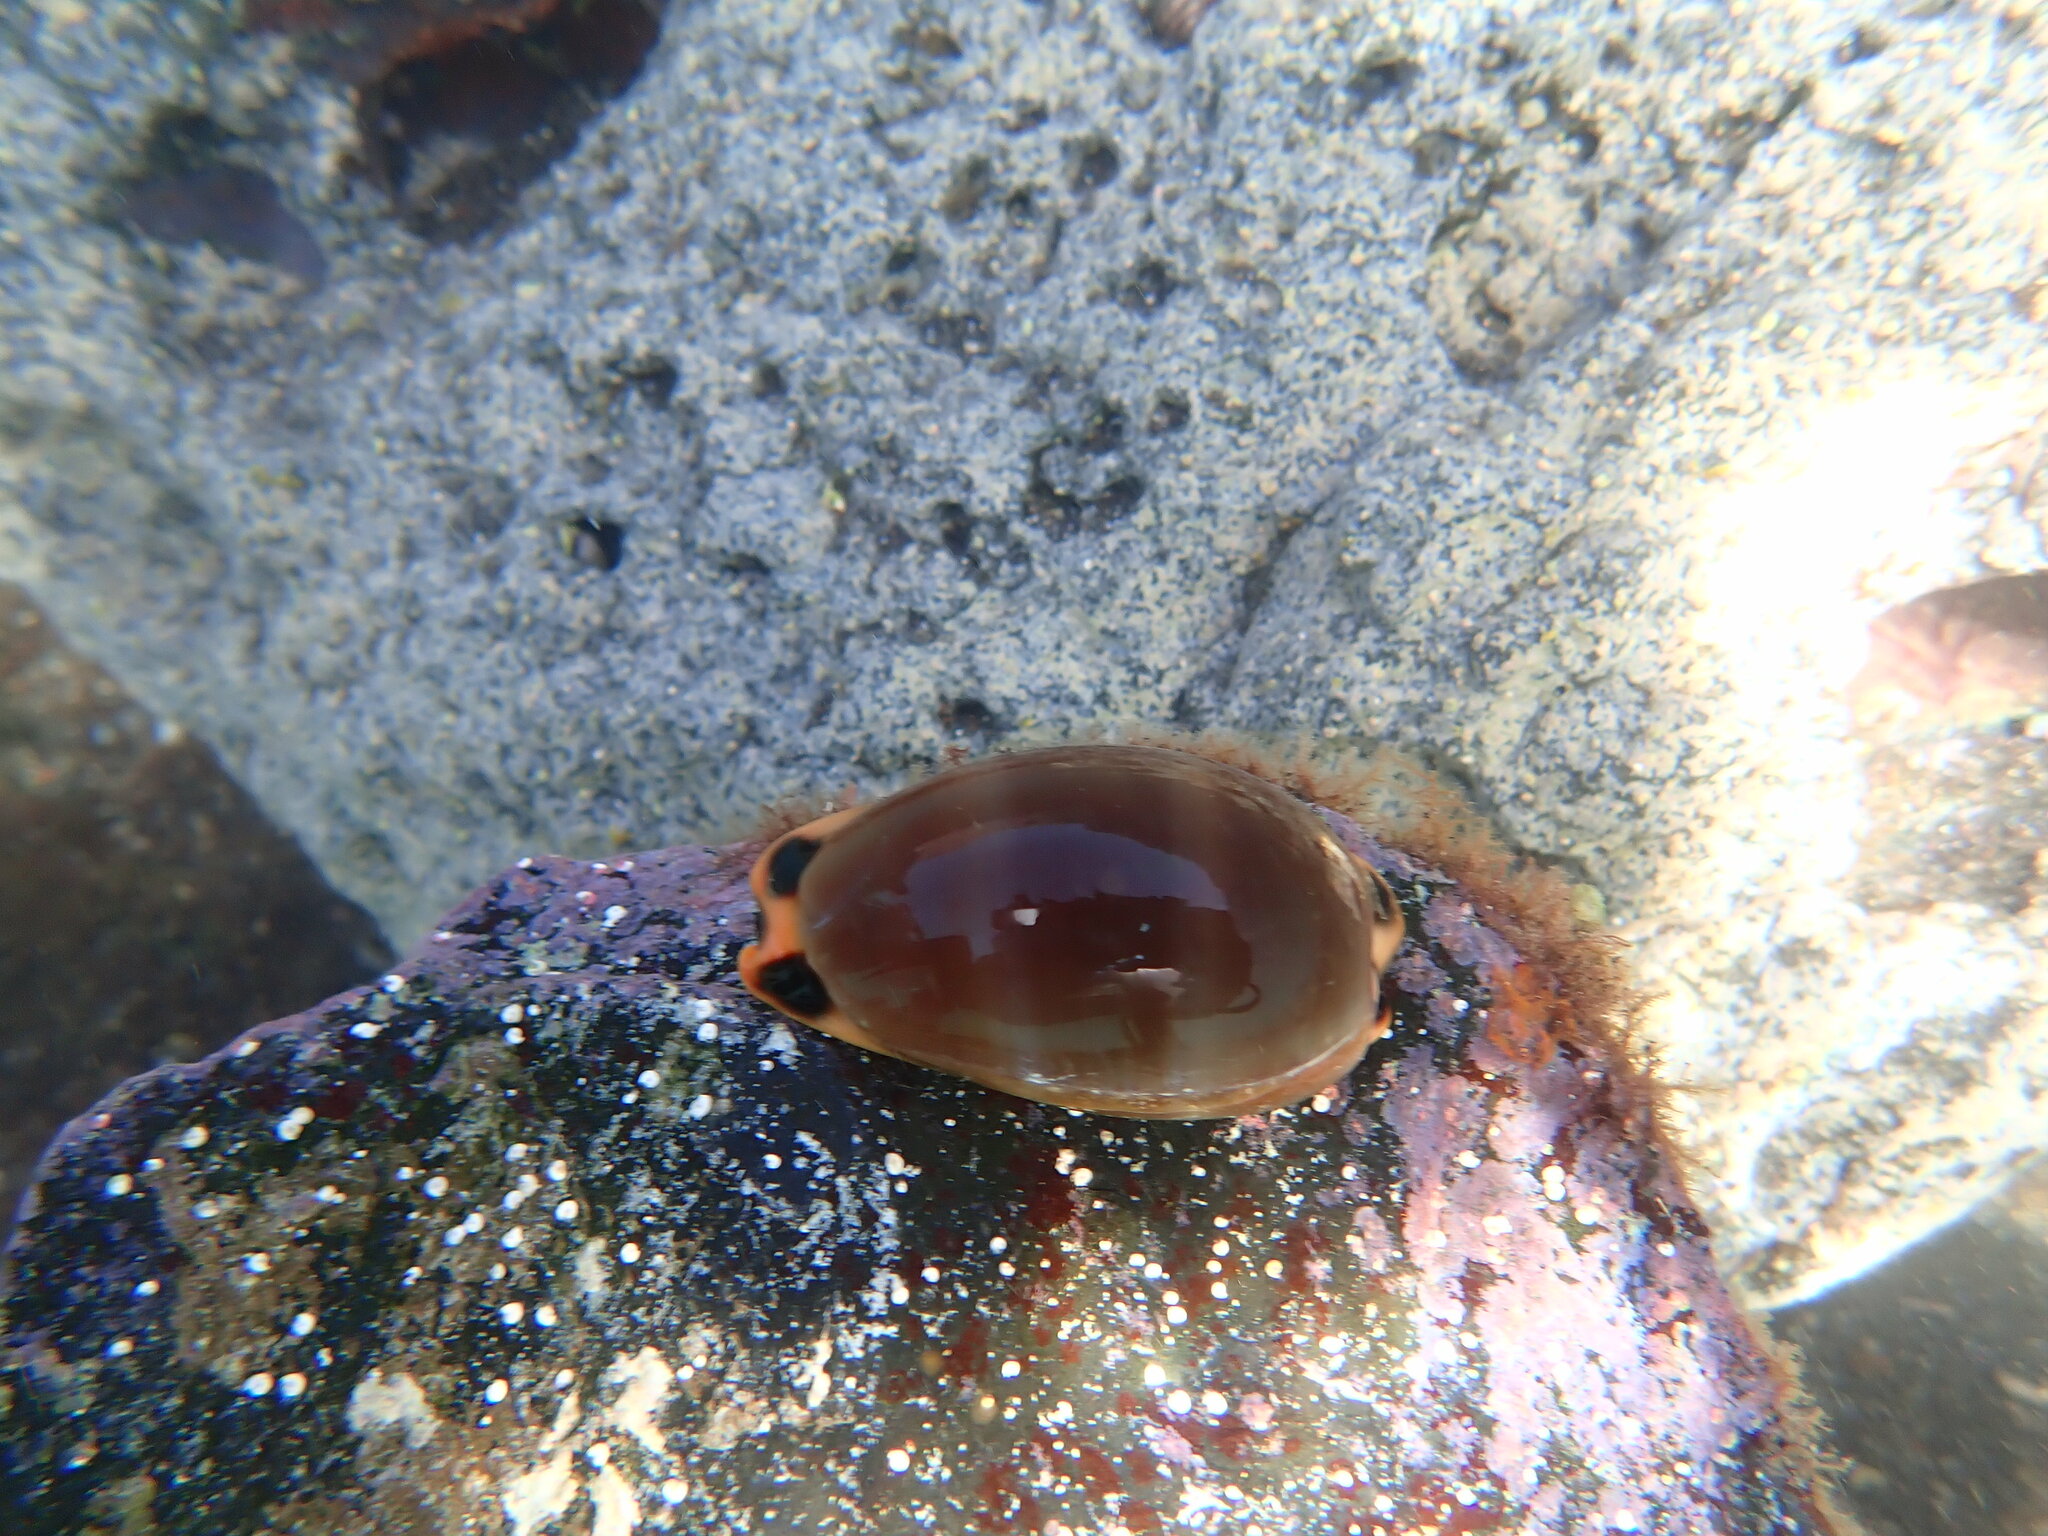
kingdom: Animalia
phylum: Mollusca
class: Gastropoda
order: Littorinimorpha
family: Cypraeidae
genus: Luria
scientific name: Luria lurida
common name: Brown cowry
